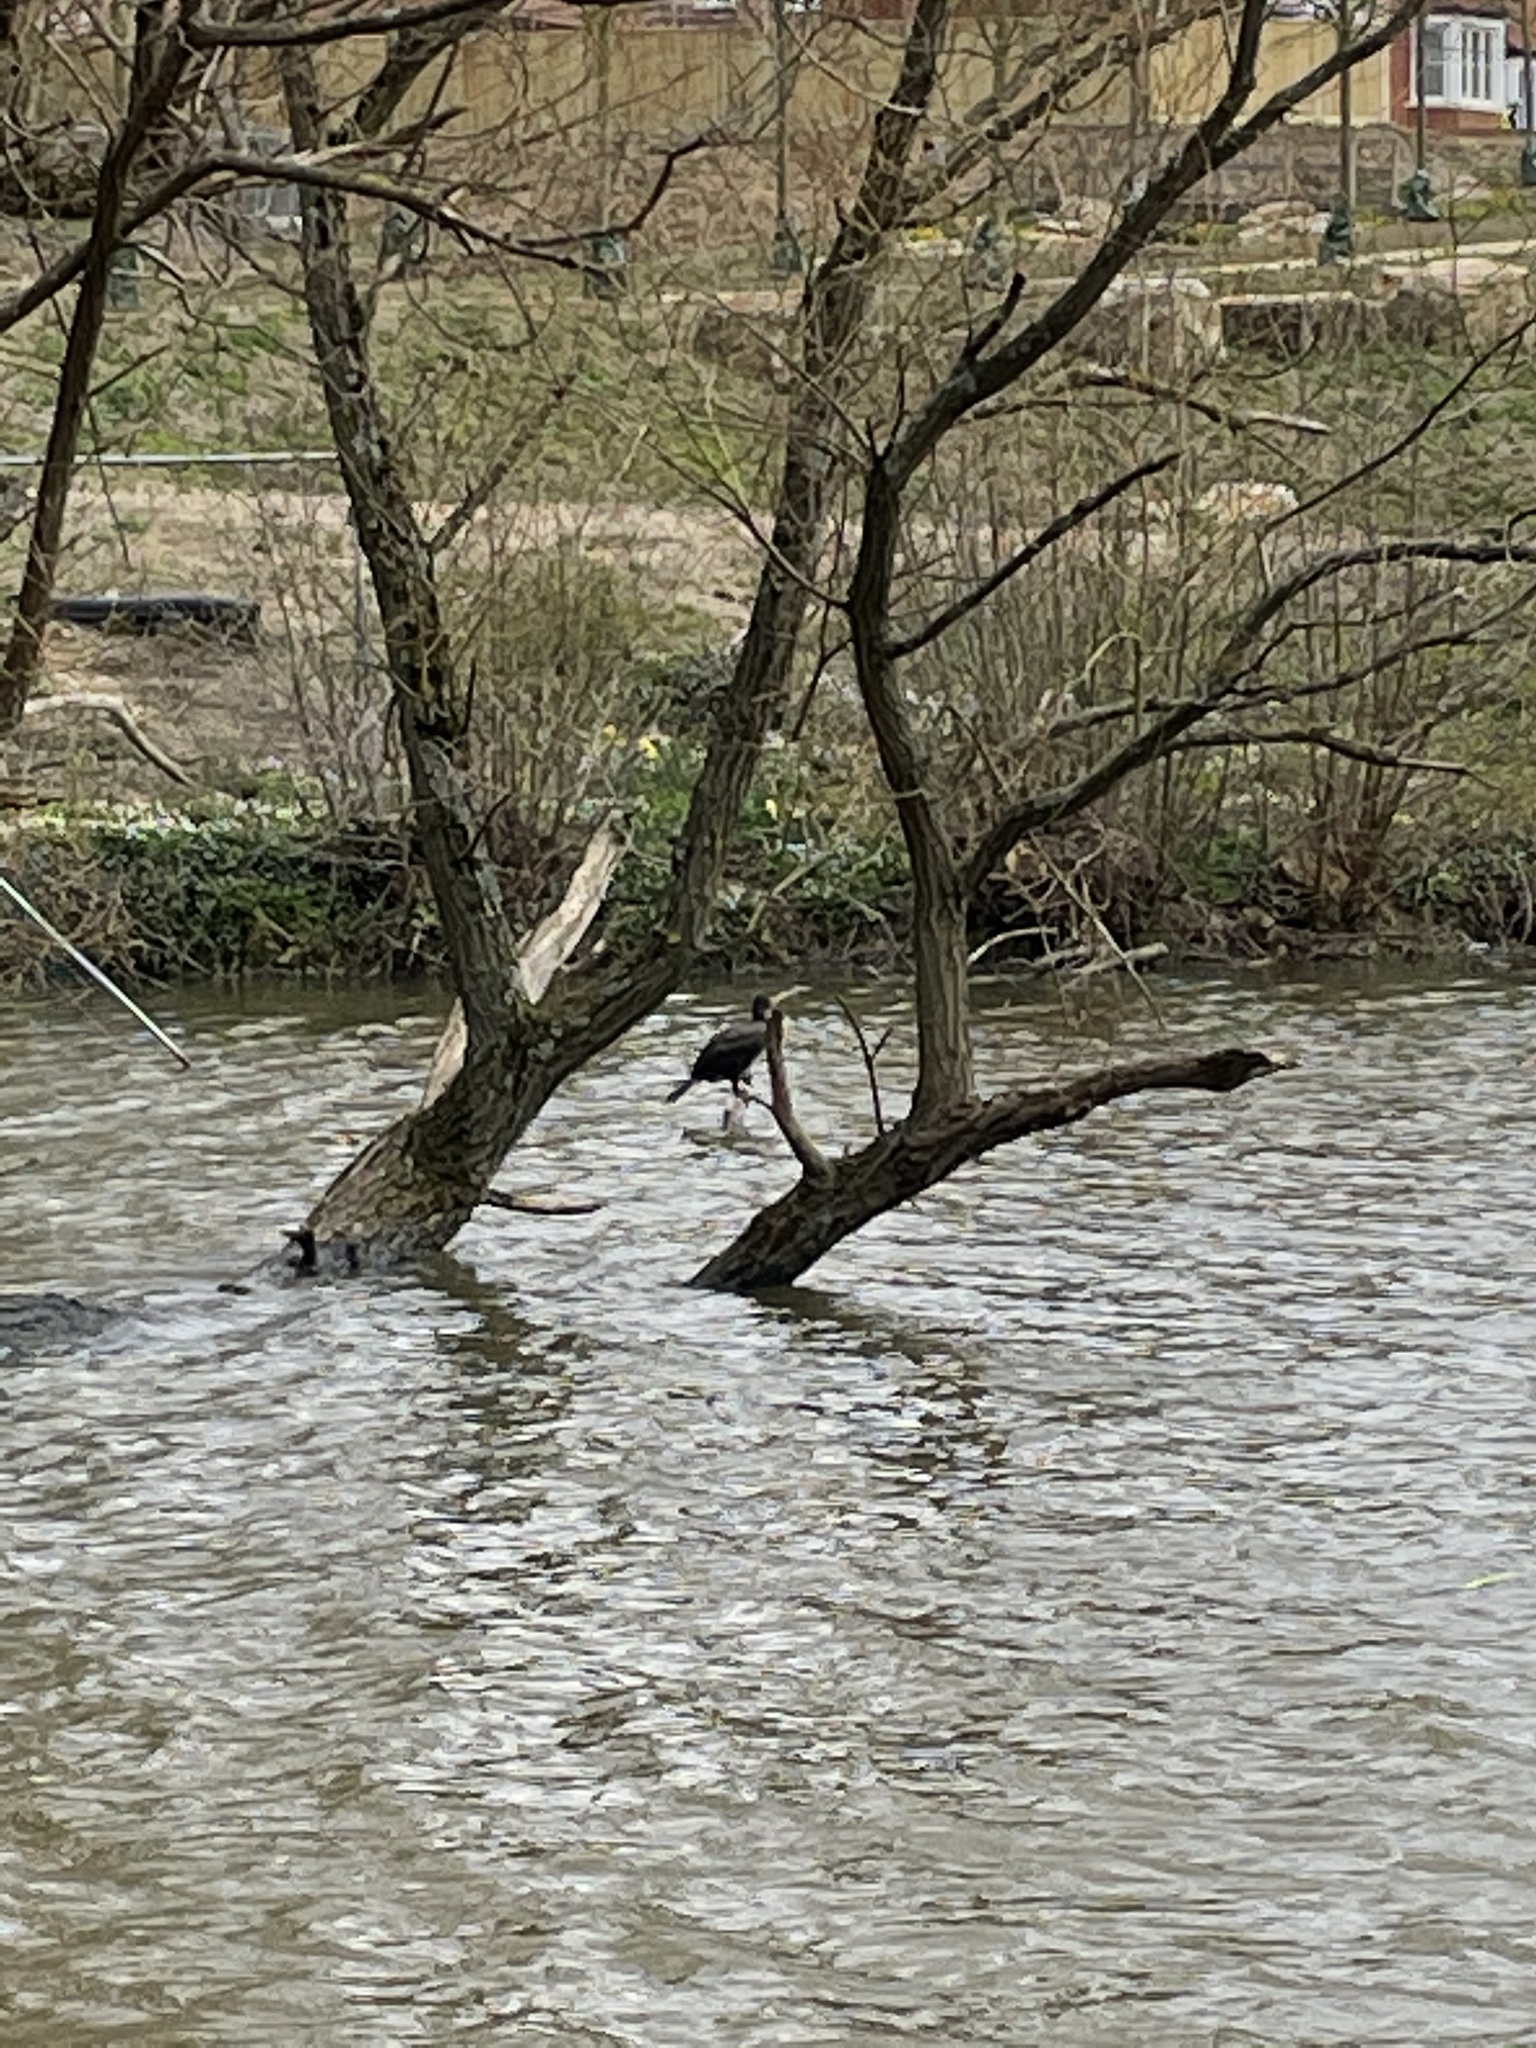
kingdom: Animalia
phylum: Chordata
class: Aves
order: Suliformes
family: Phalacrocoracidae
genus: Phalacrocorax
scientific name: Phalacrocorax carbo
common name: Great cormorant
